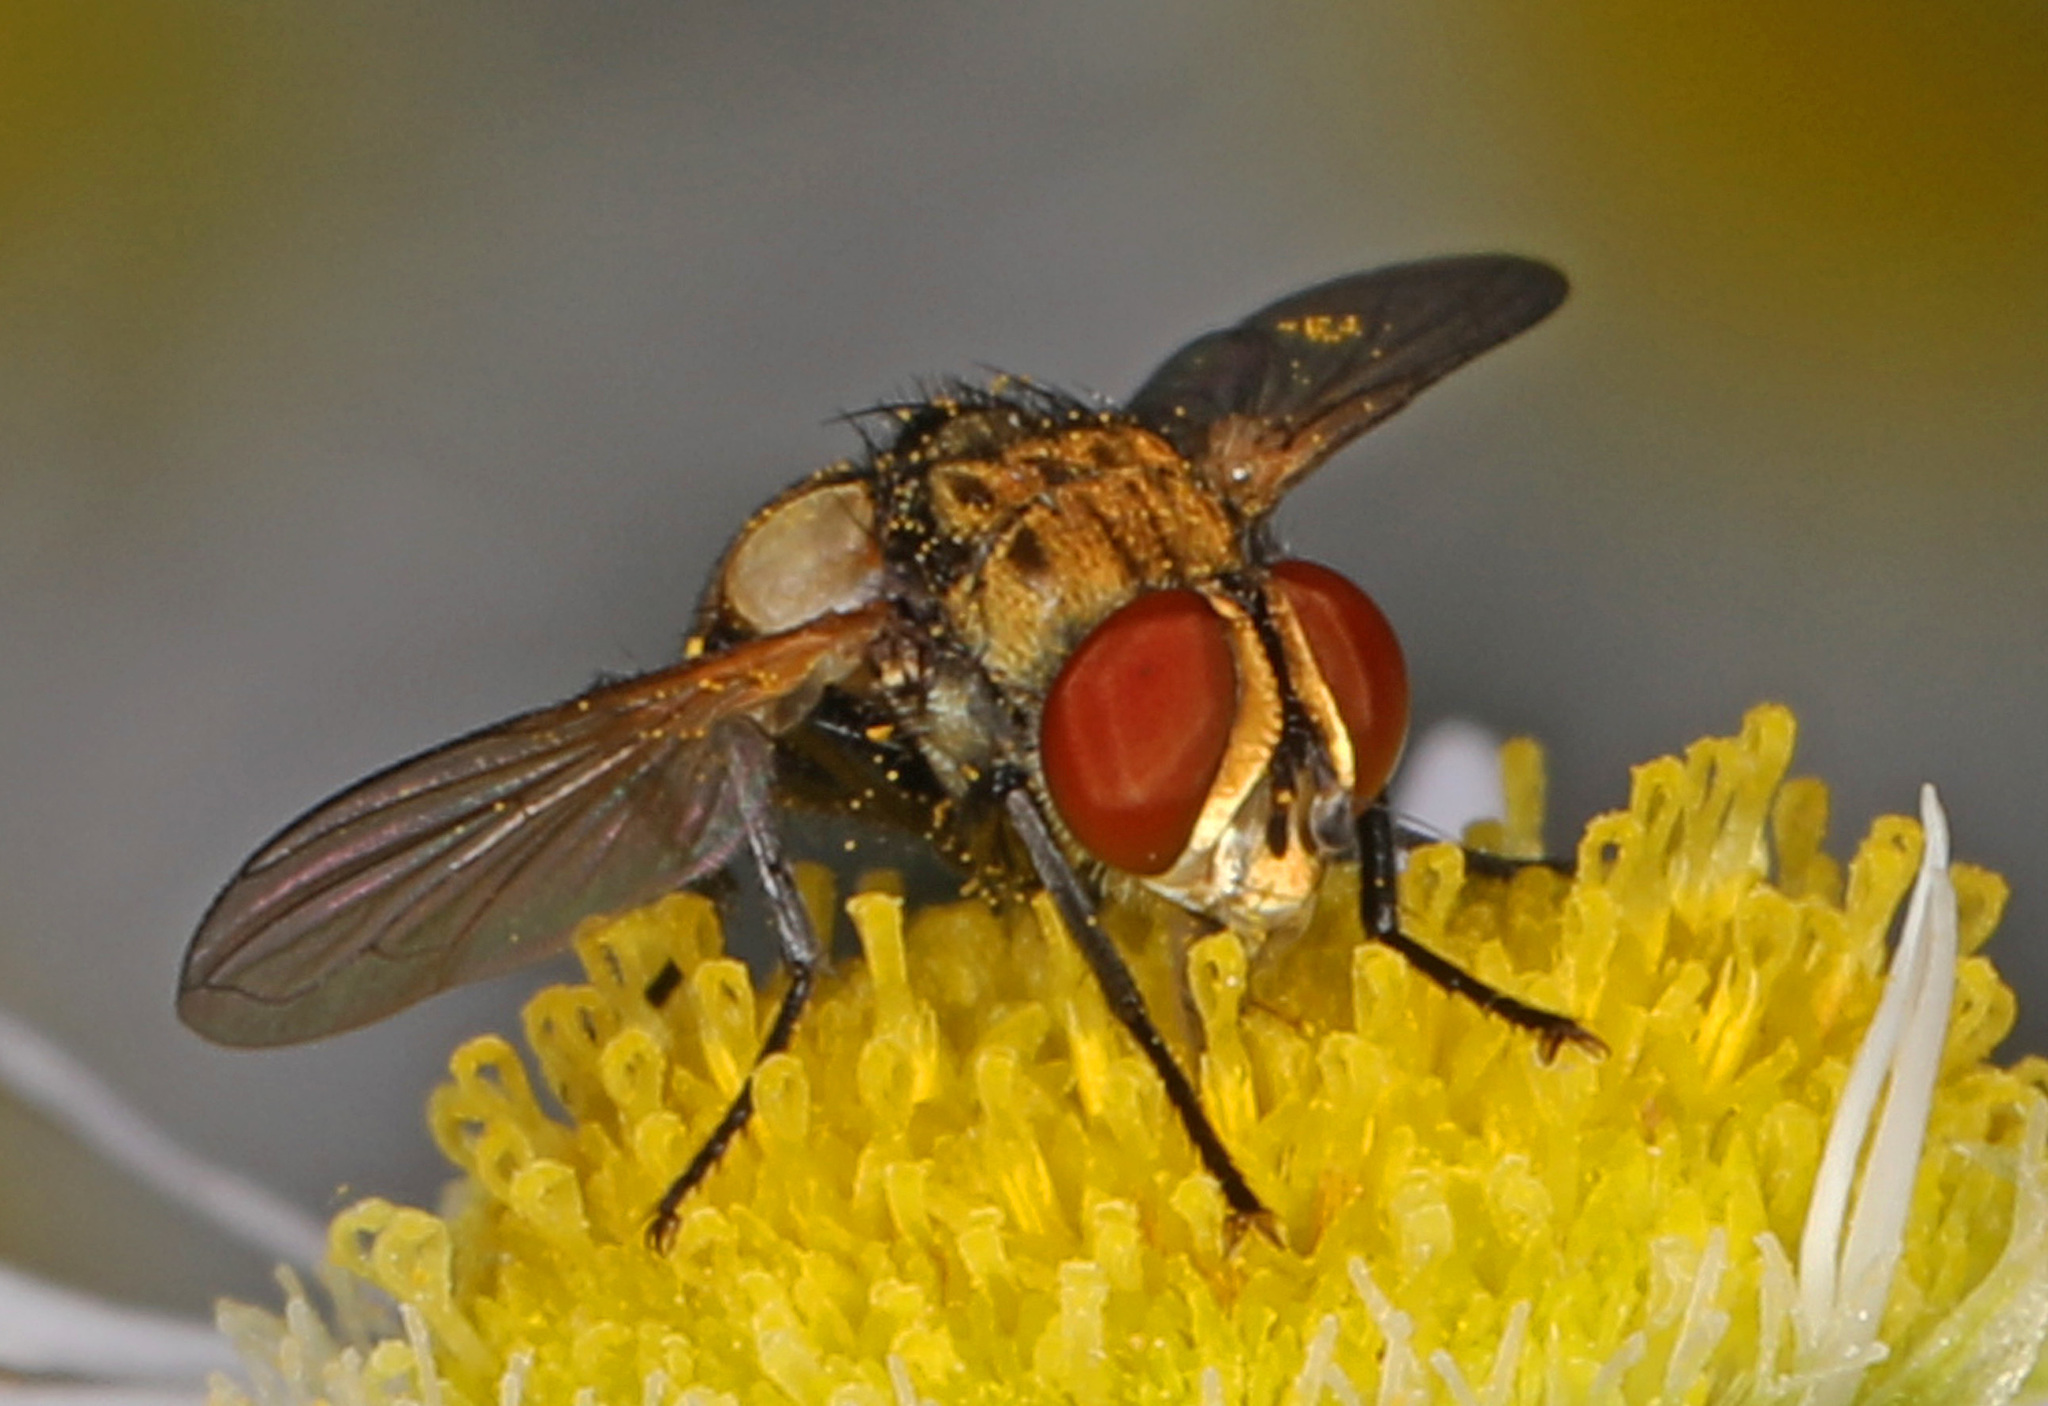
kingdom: Animalia
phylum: Arthropoda
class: Insecta
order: Diptera
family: Tachinidae
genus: Gymnoclytia
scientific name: Gymnoclytia occidua
